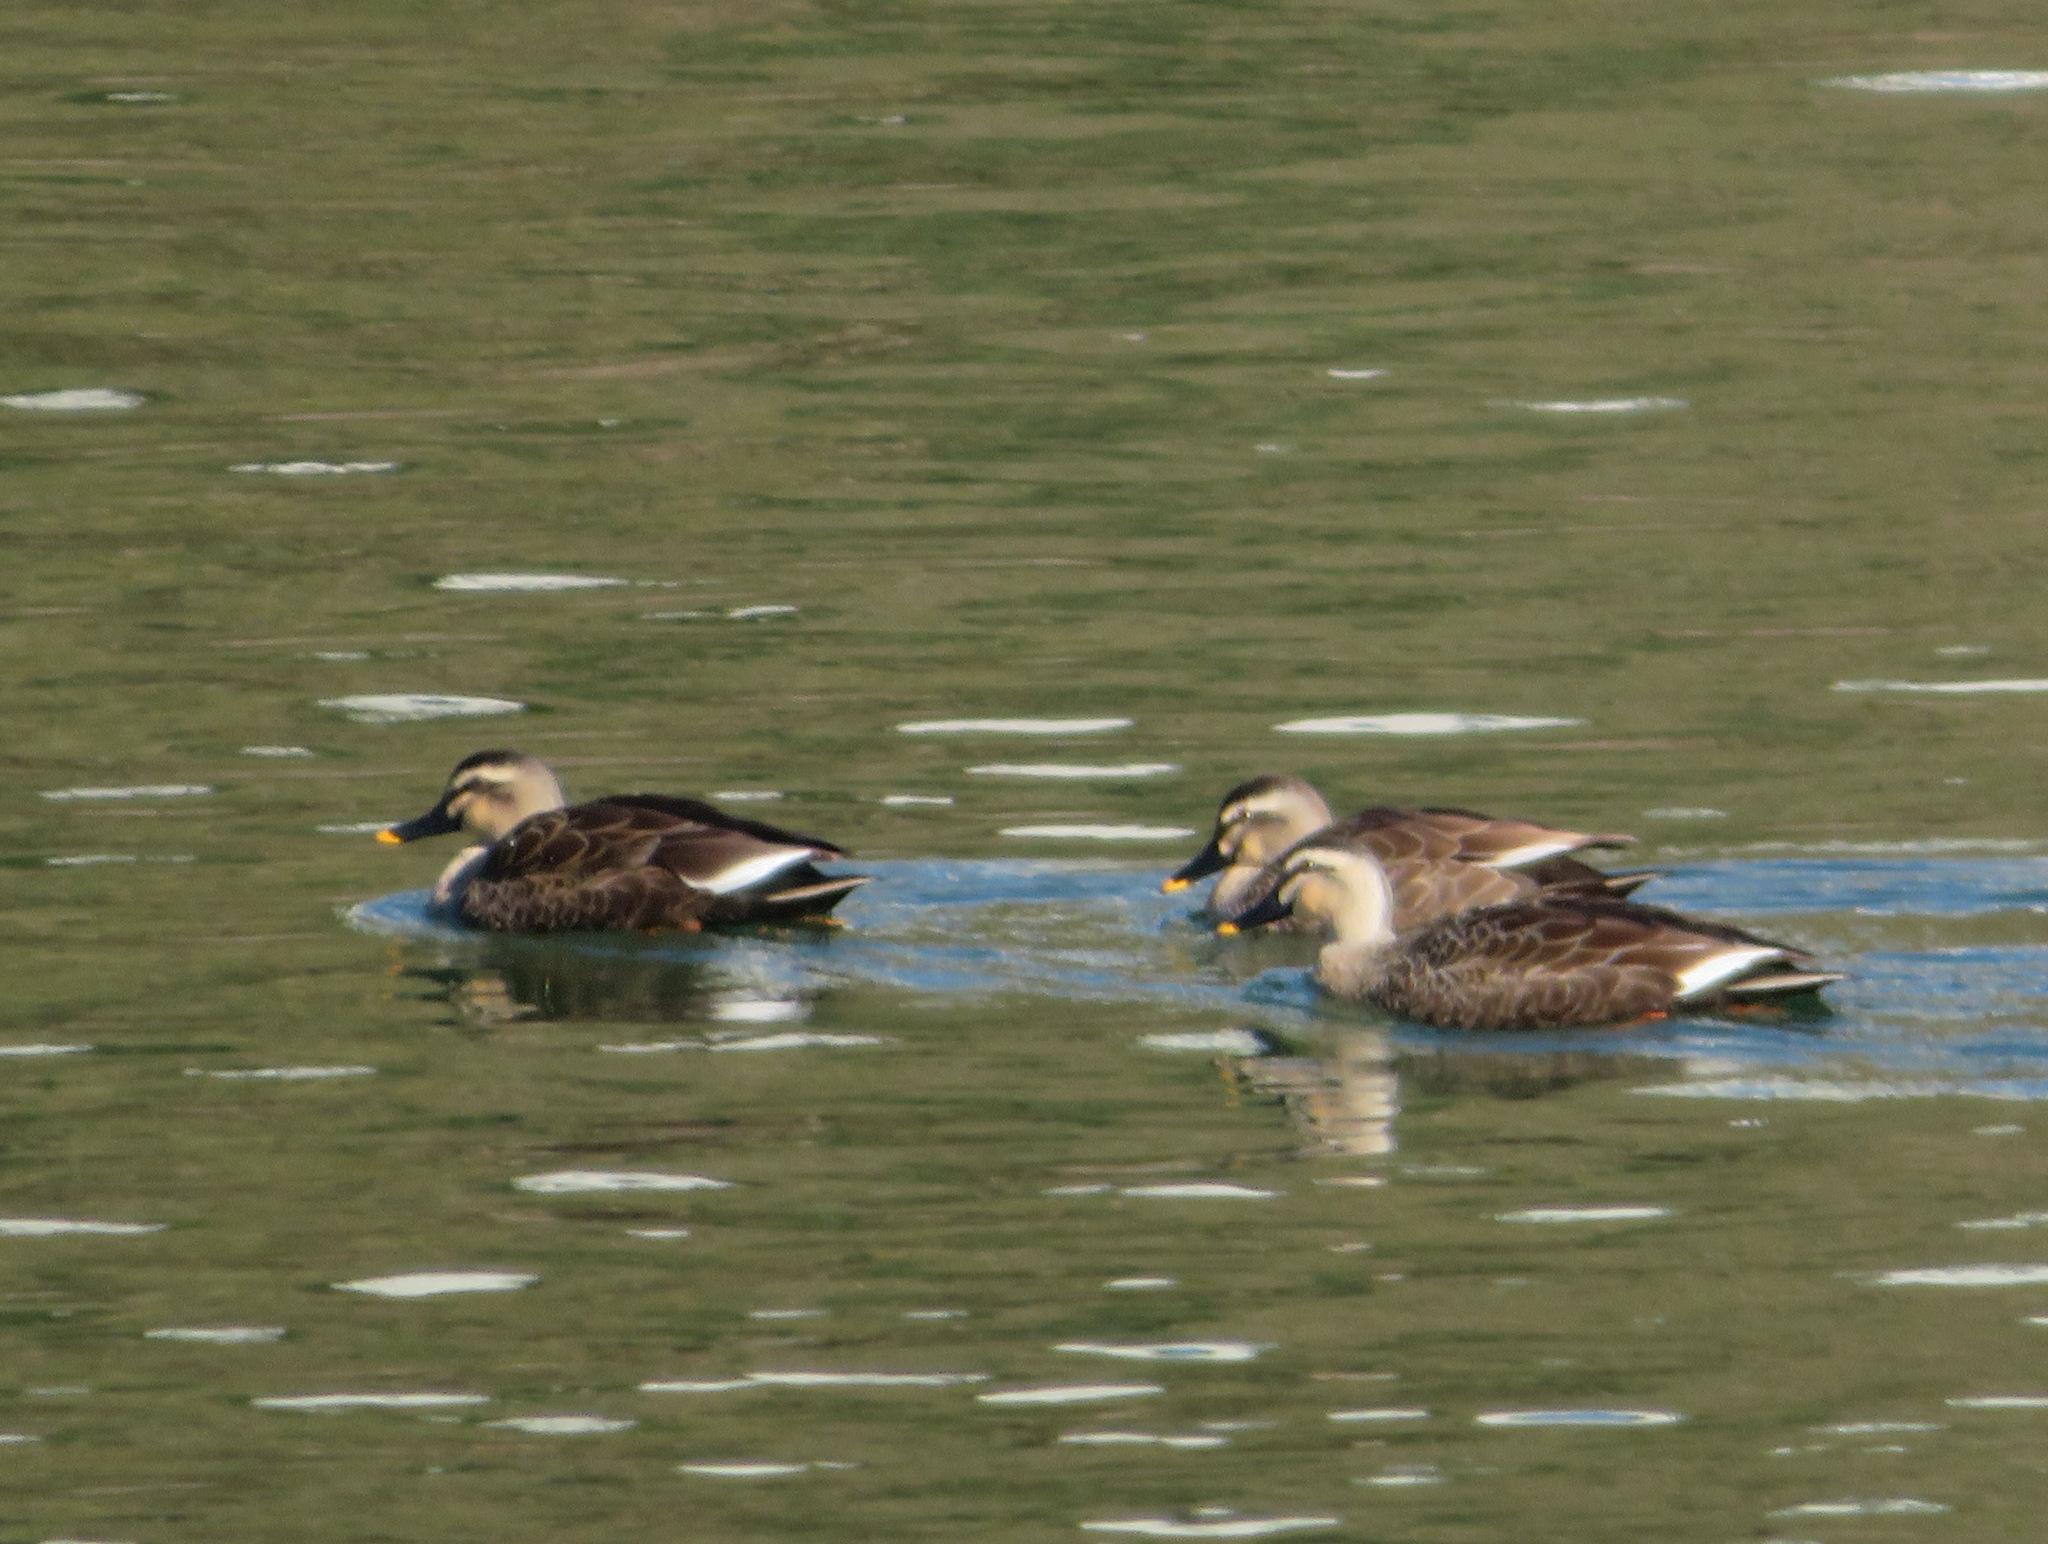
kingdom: Animalia
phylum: Chordata
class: Aves
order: Anseriformes
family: Anatidae
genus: Anas
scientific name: Anas zonorhyncha
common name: Eastern spot-billed duck
